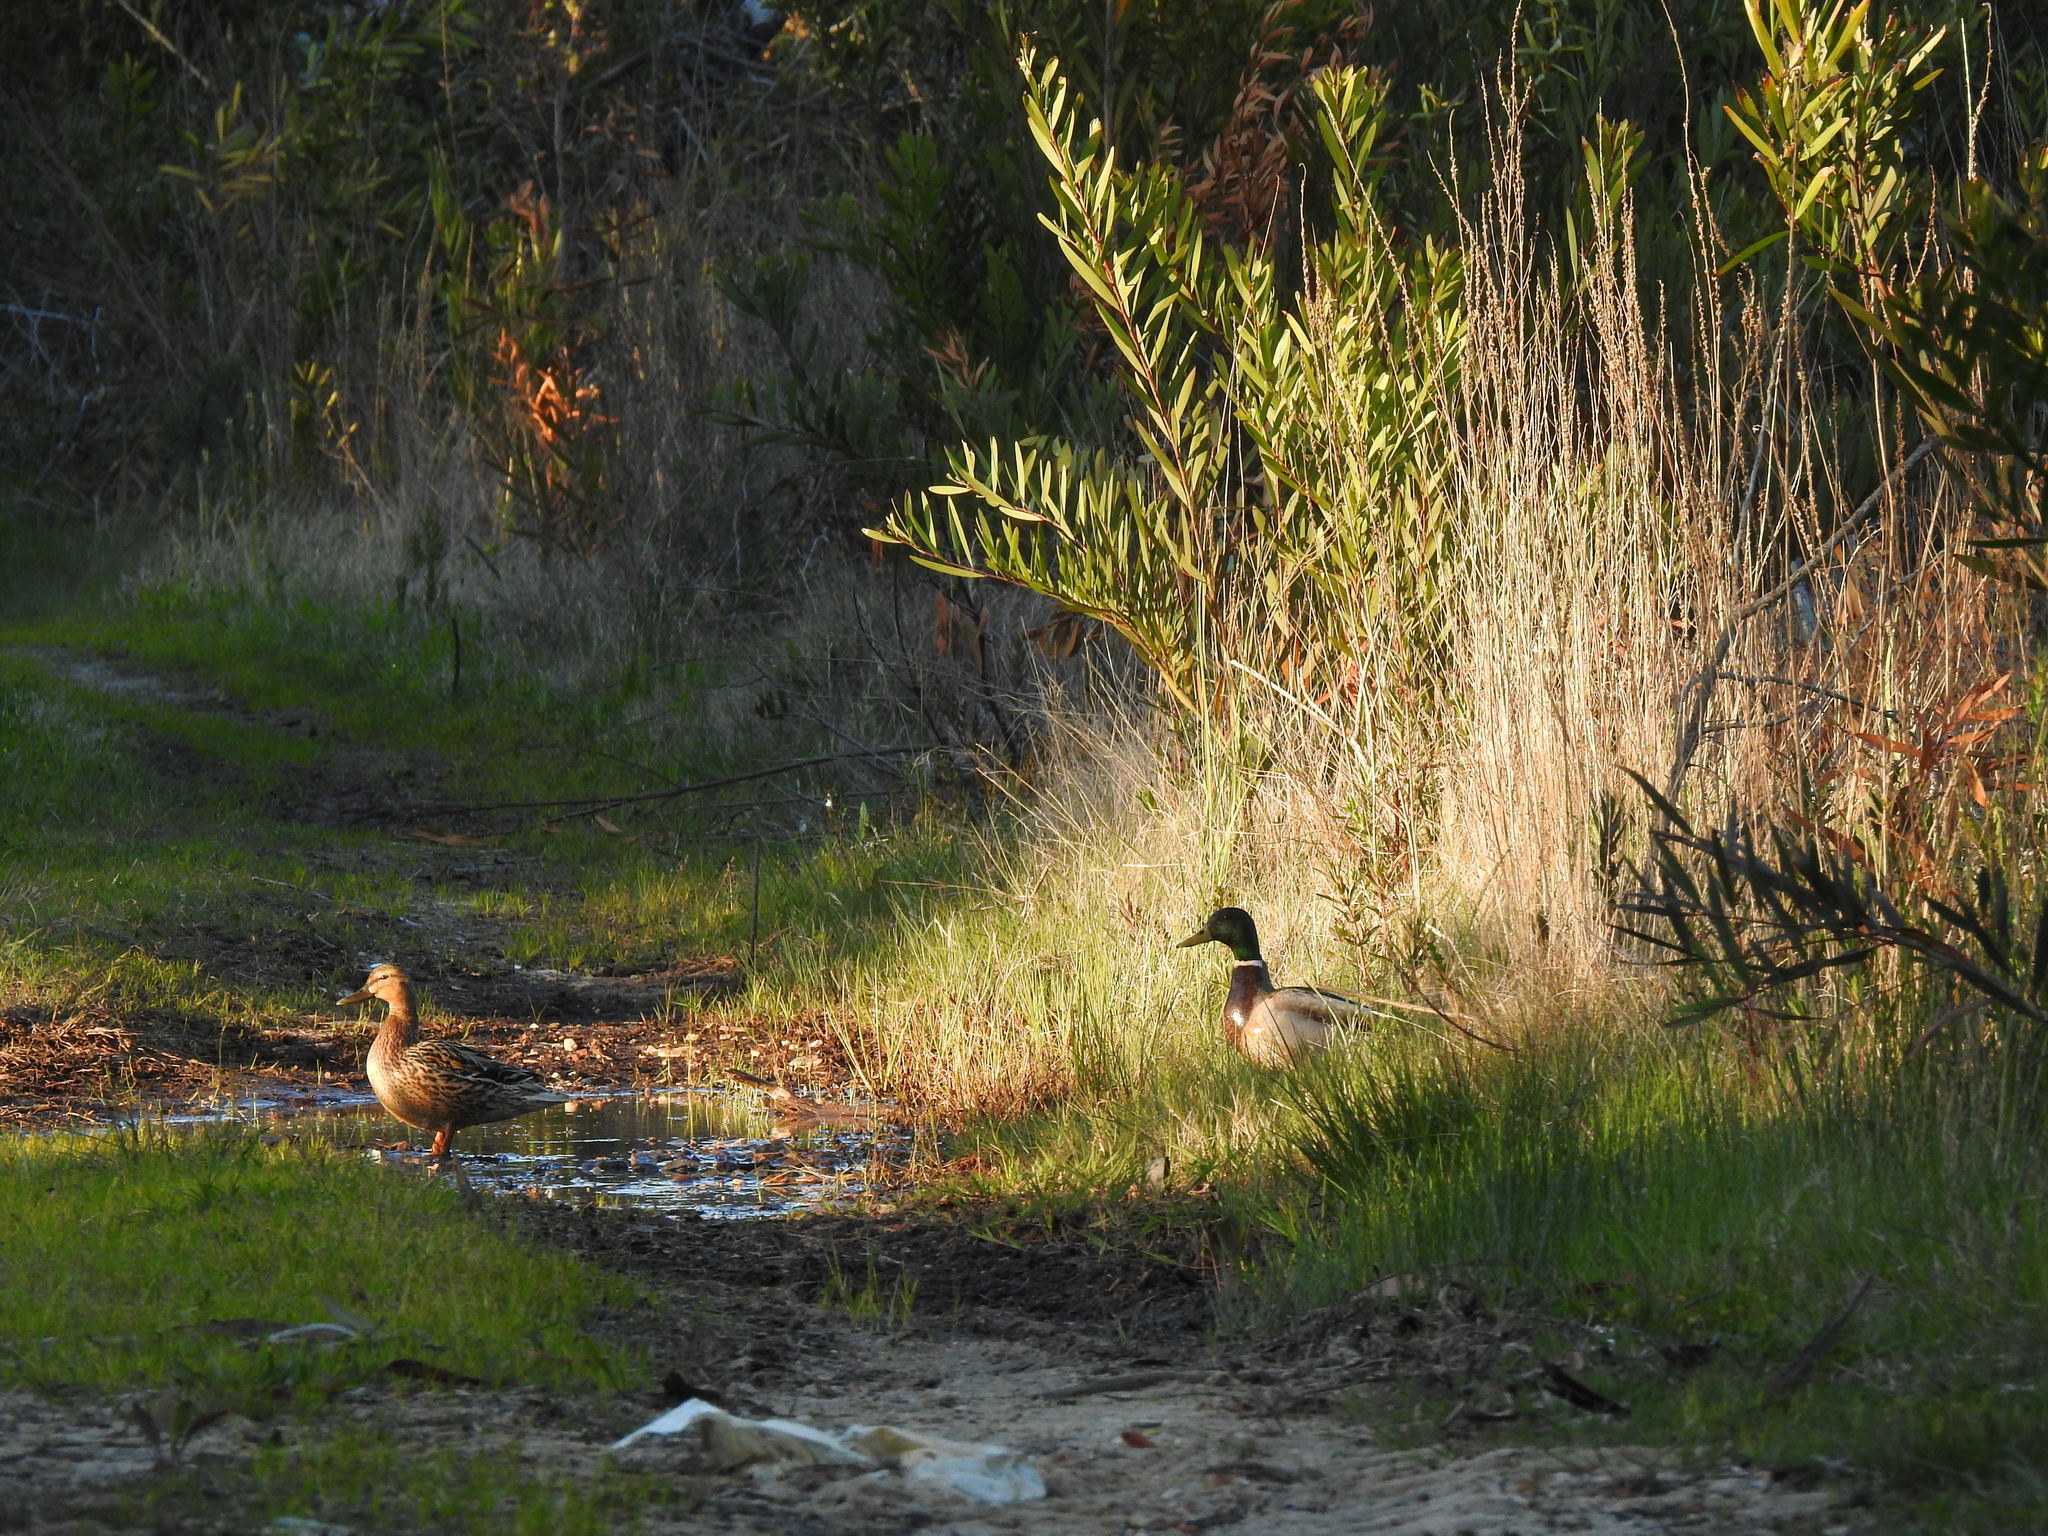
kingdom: Animalia
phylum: Chordata
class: Aves
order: Anseriformes
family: Anatidae
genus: Anas
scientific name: Anas platyrhynchos
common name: Mallard
